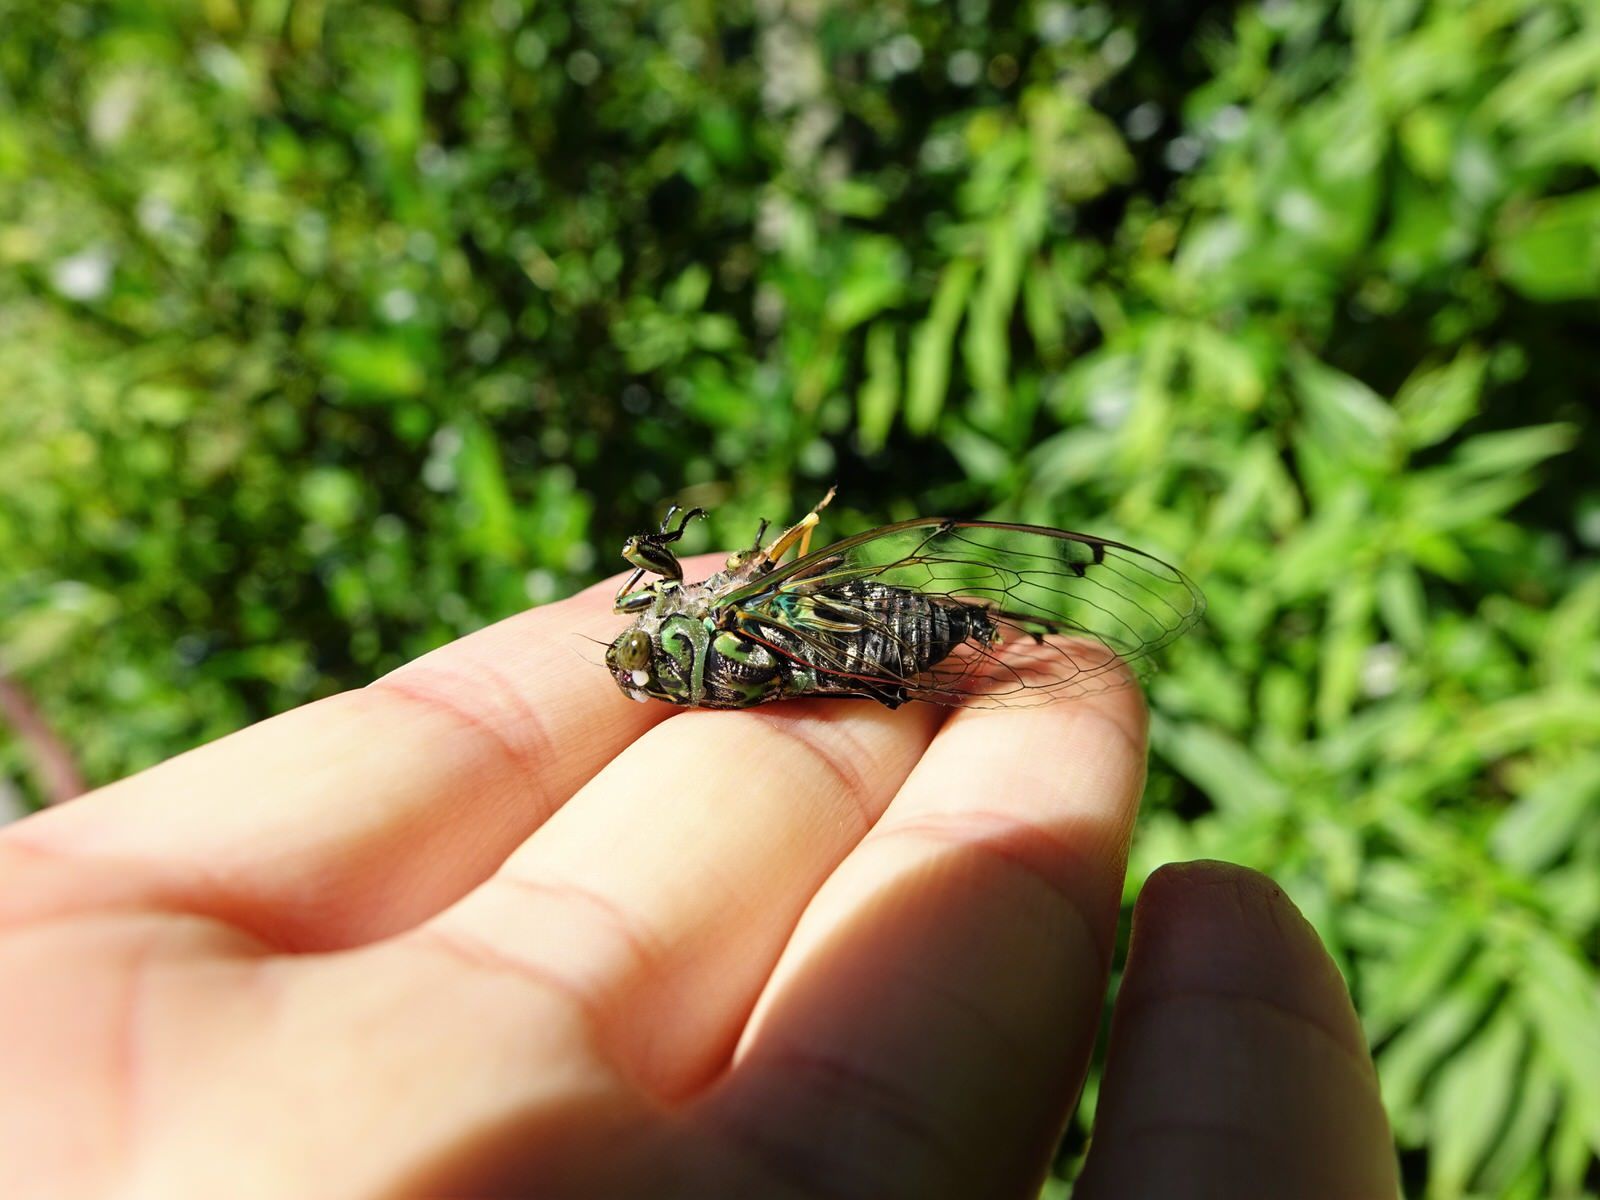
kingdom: Animalia
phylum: Arthropoda
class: Insecta
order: Hemiptera
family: Cicadidae
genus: Amphipsalta
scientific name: Amphipsalta zelandica
